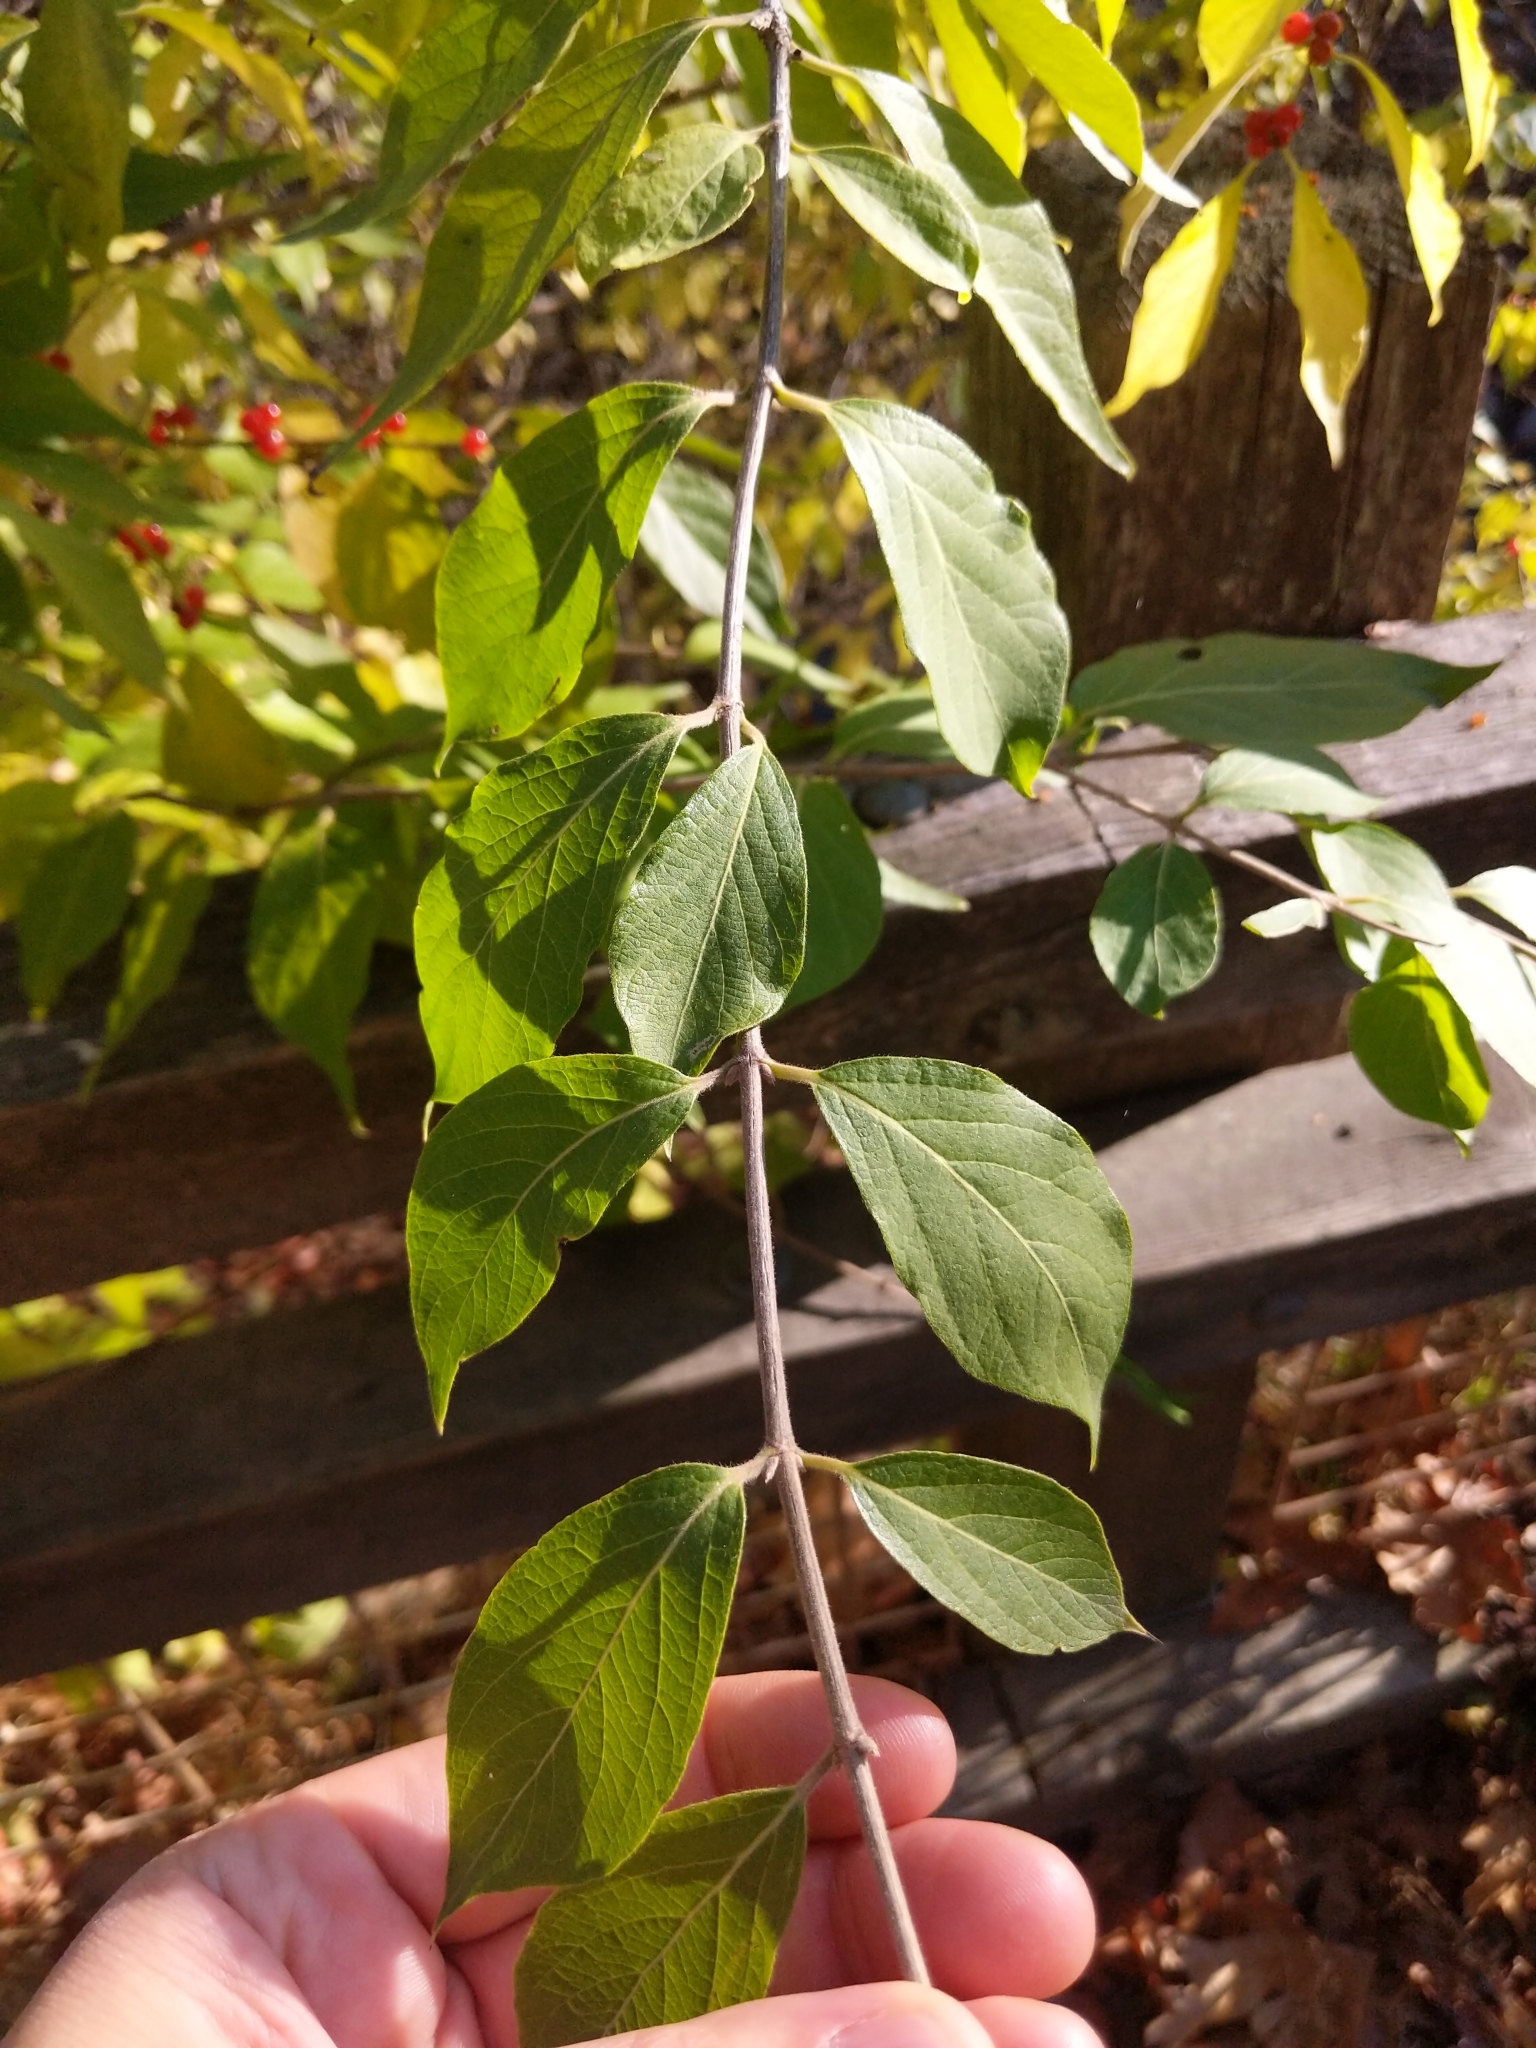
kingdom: Plantae
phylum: Tracheophyta
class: Magnoliopsida
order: Dipsacales
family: Caprifoliaceae
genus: Lonicera
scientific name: Lonicera maackii
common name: Amur honeysuckle
